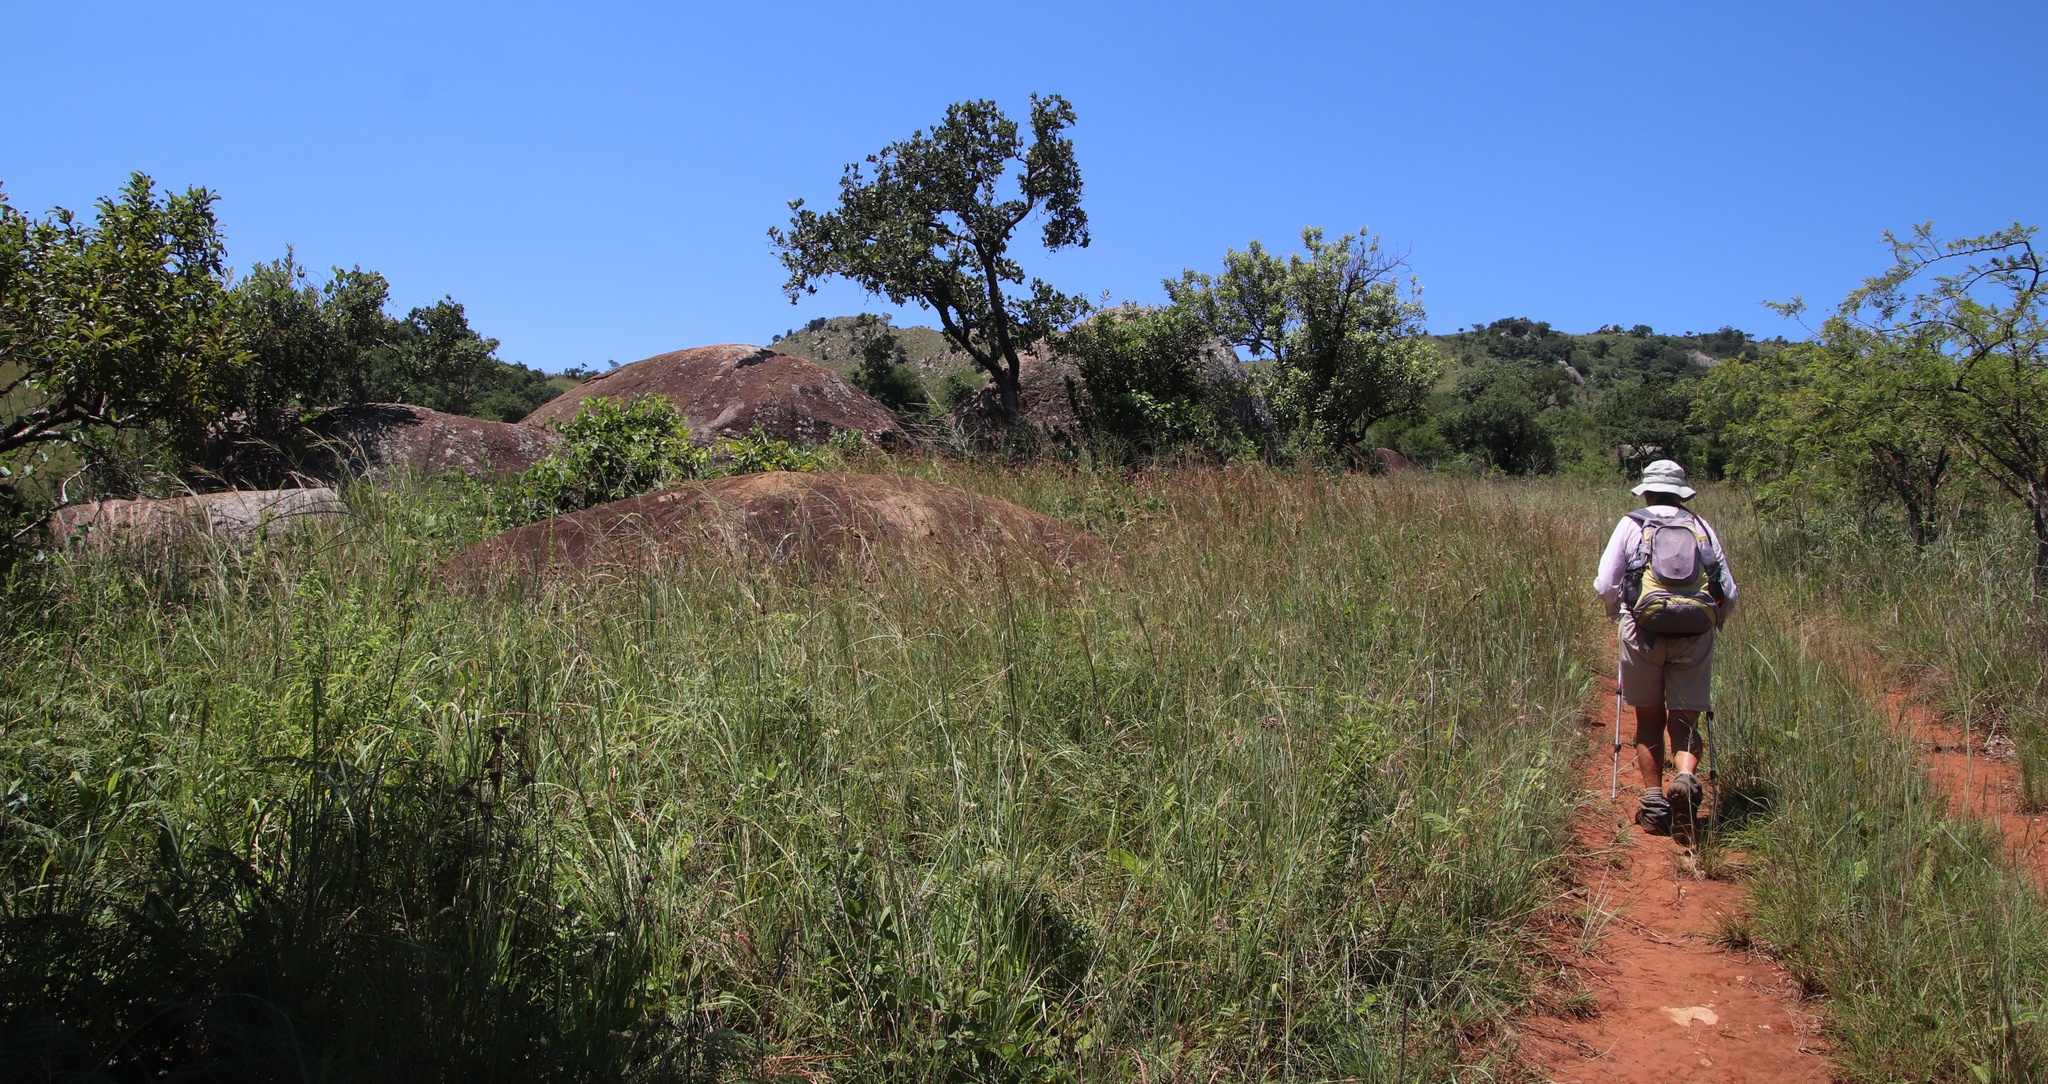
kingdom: Plantae
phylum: Tracheophyta
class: Magnoliopsida
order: Myrtales
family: Myrtaceae
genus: Syzygium
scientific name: Syzygium cordatum
